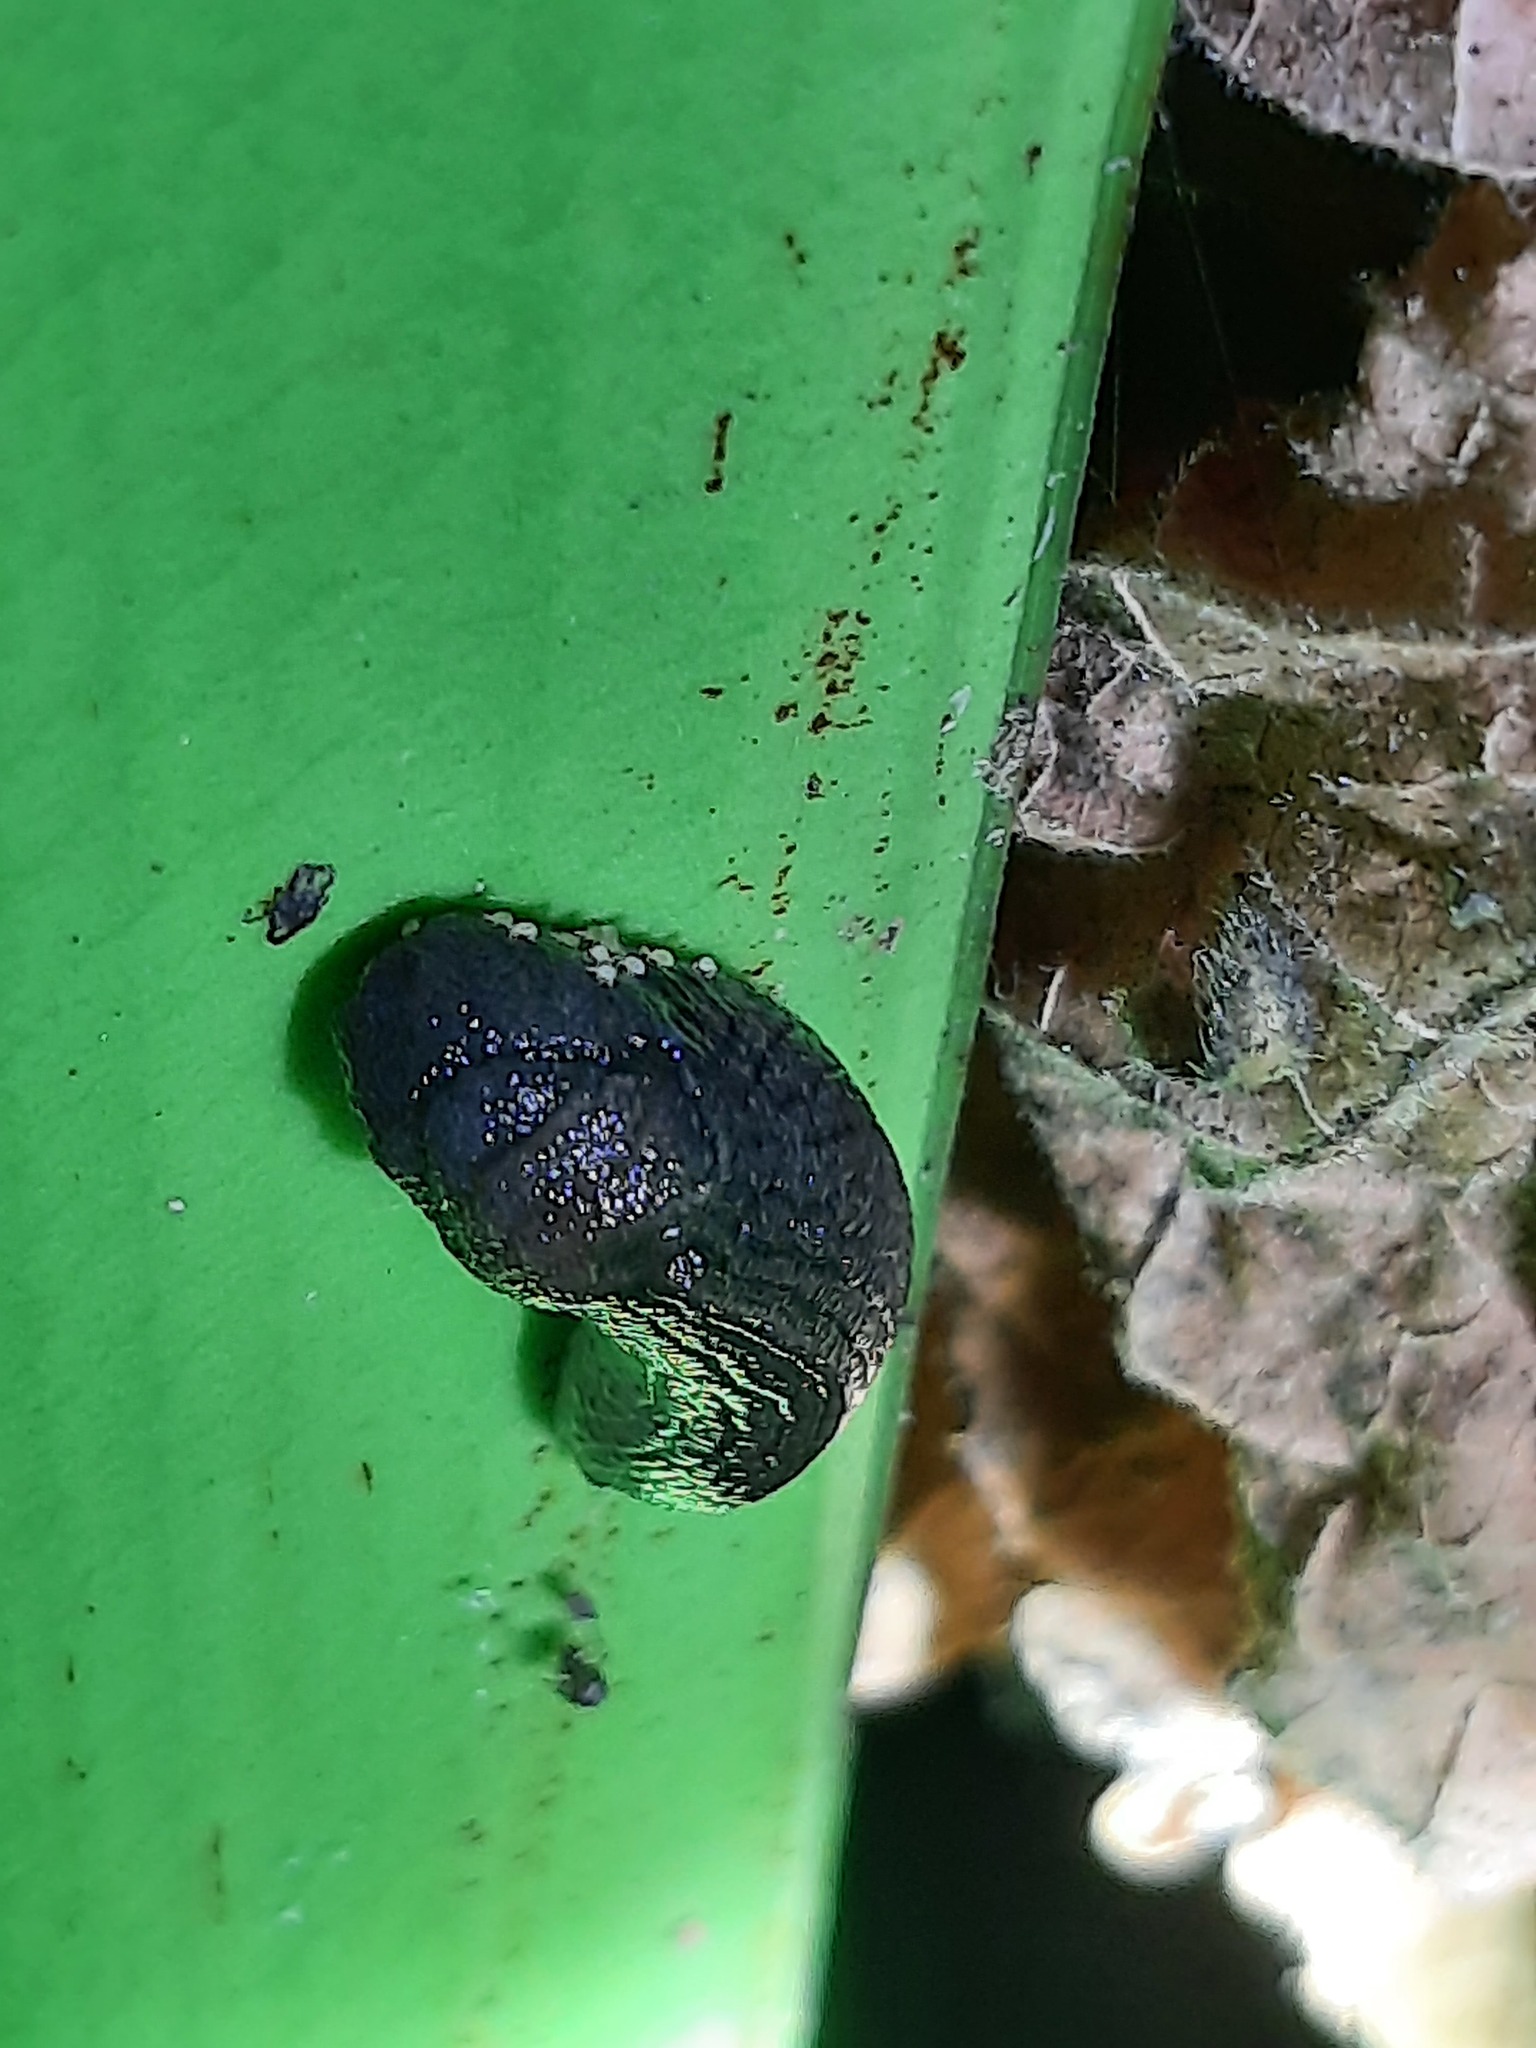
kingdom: Animalia
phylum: Mollusca
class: Gastropoda
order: Stylommatophora
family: Milacidae
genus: Milax
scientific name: Milax gagates
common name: Greenhouse slug
